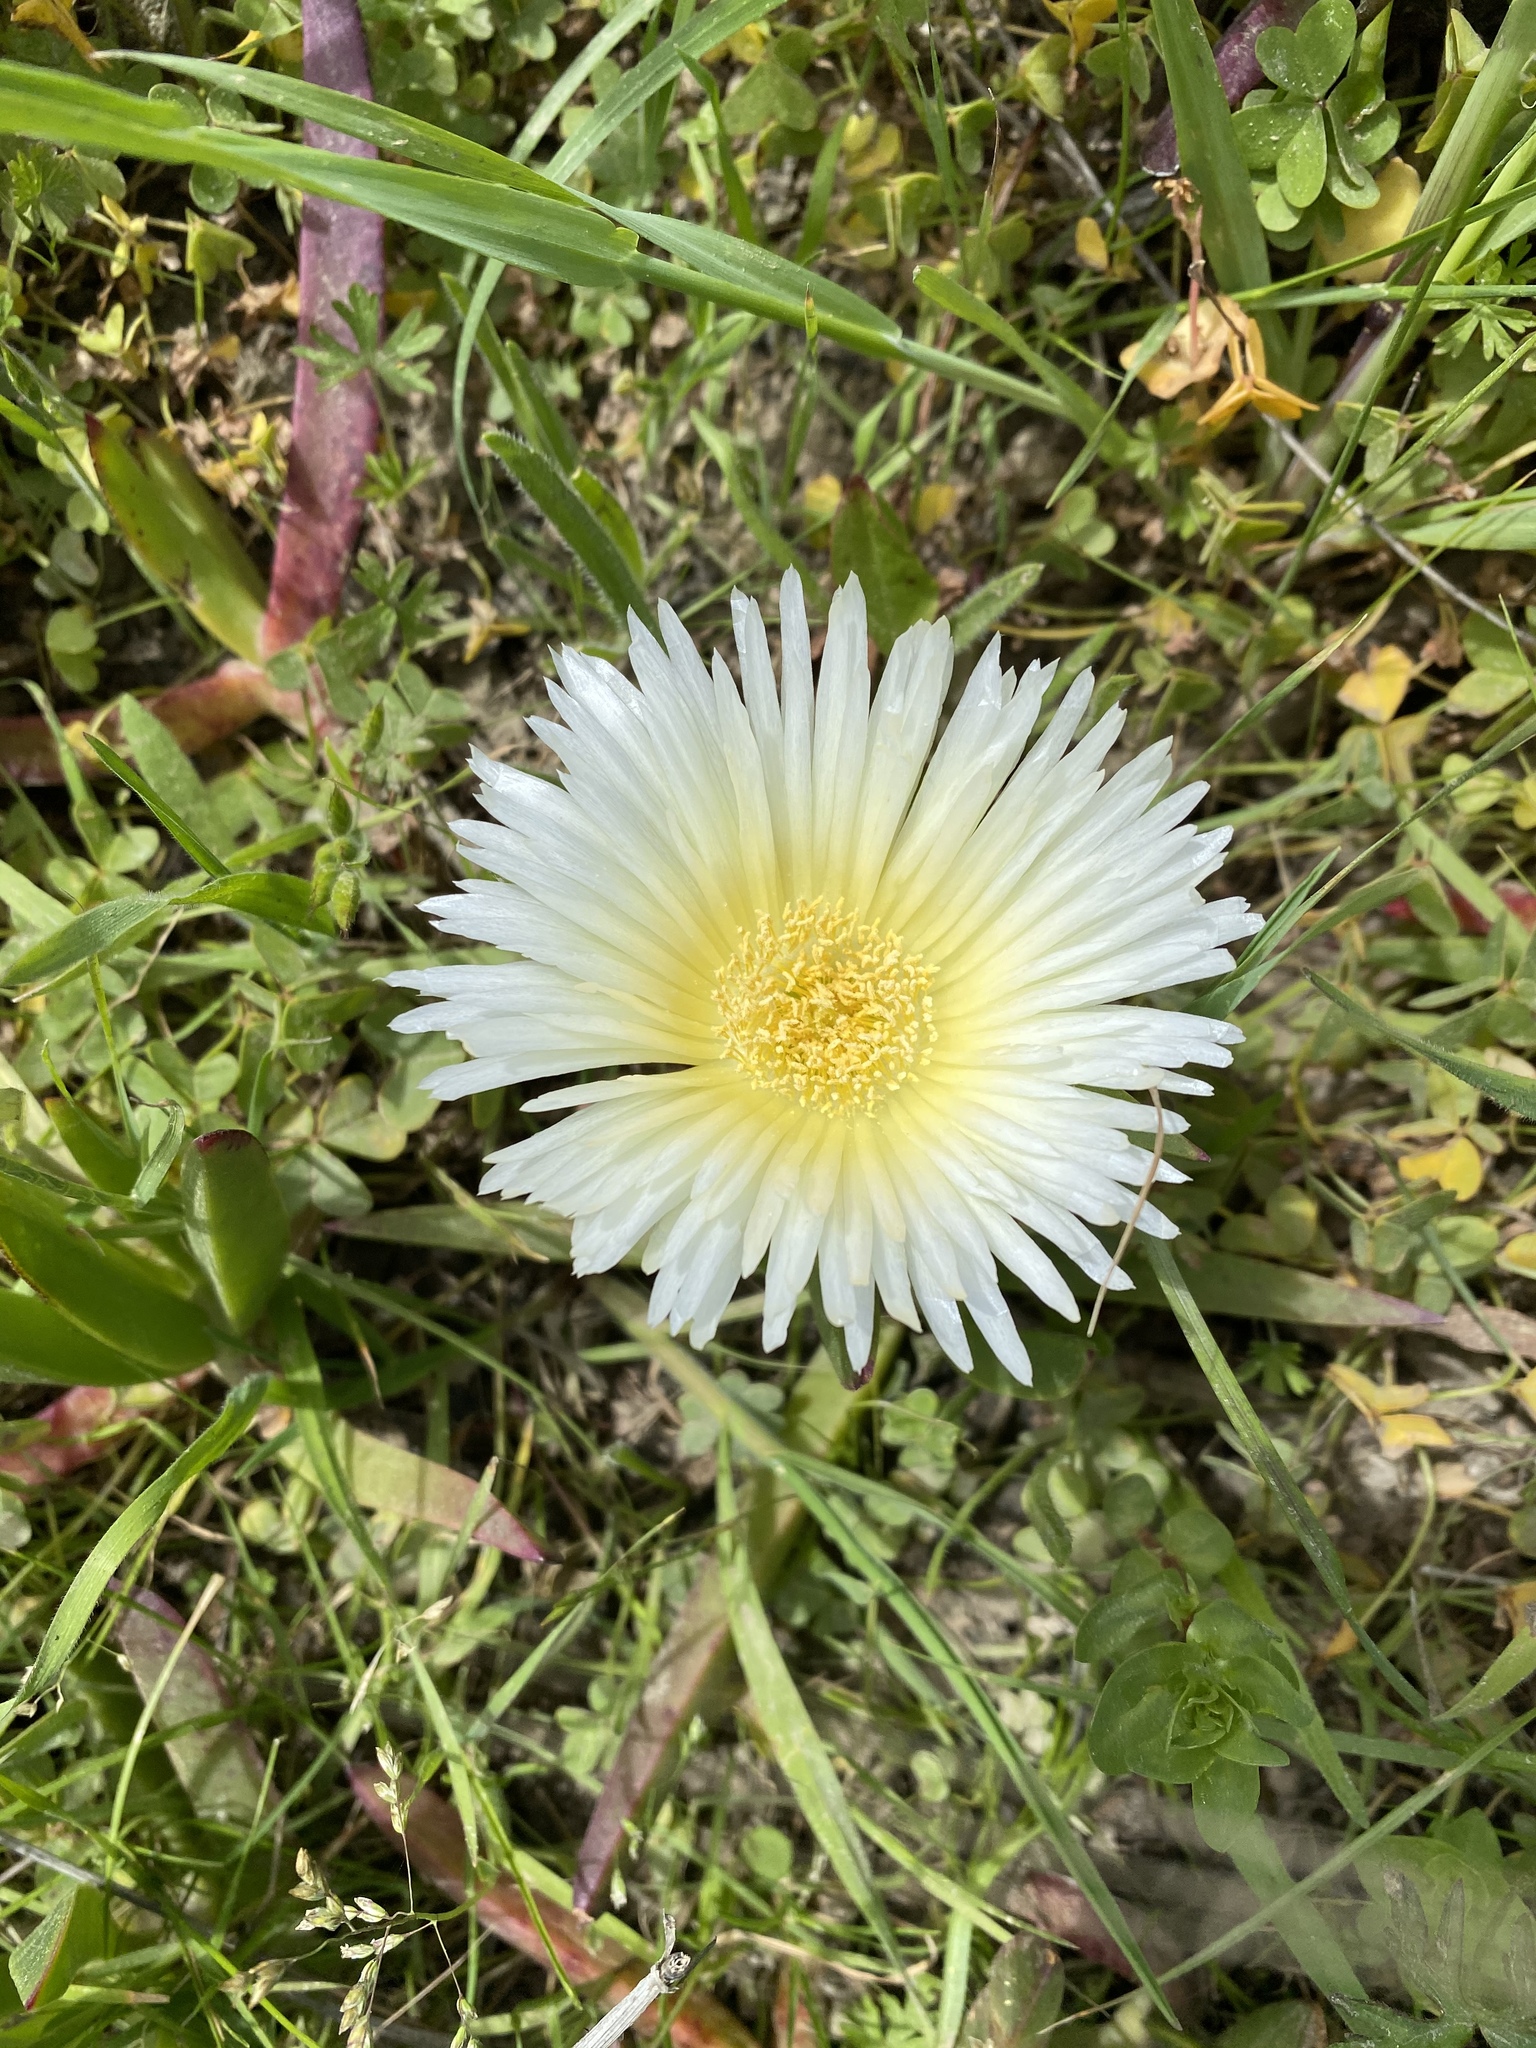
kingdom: Plantae
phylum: Tracheophyta
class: Magnoliopsida
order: Caryophyllales
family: Aizoaceae
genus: Carpobrotus
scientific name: Carpobrotus edulis
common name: Hottentot-fig
